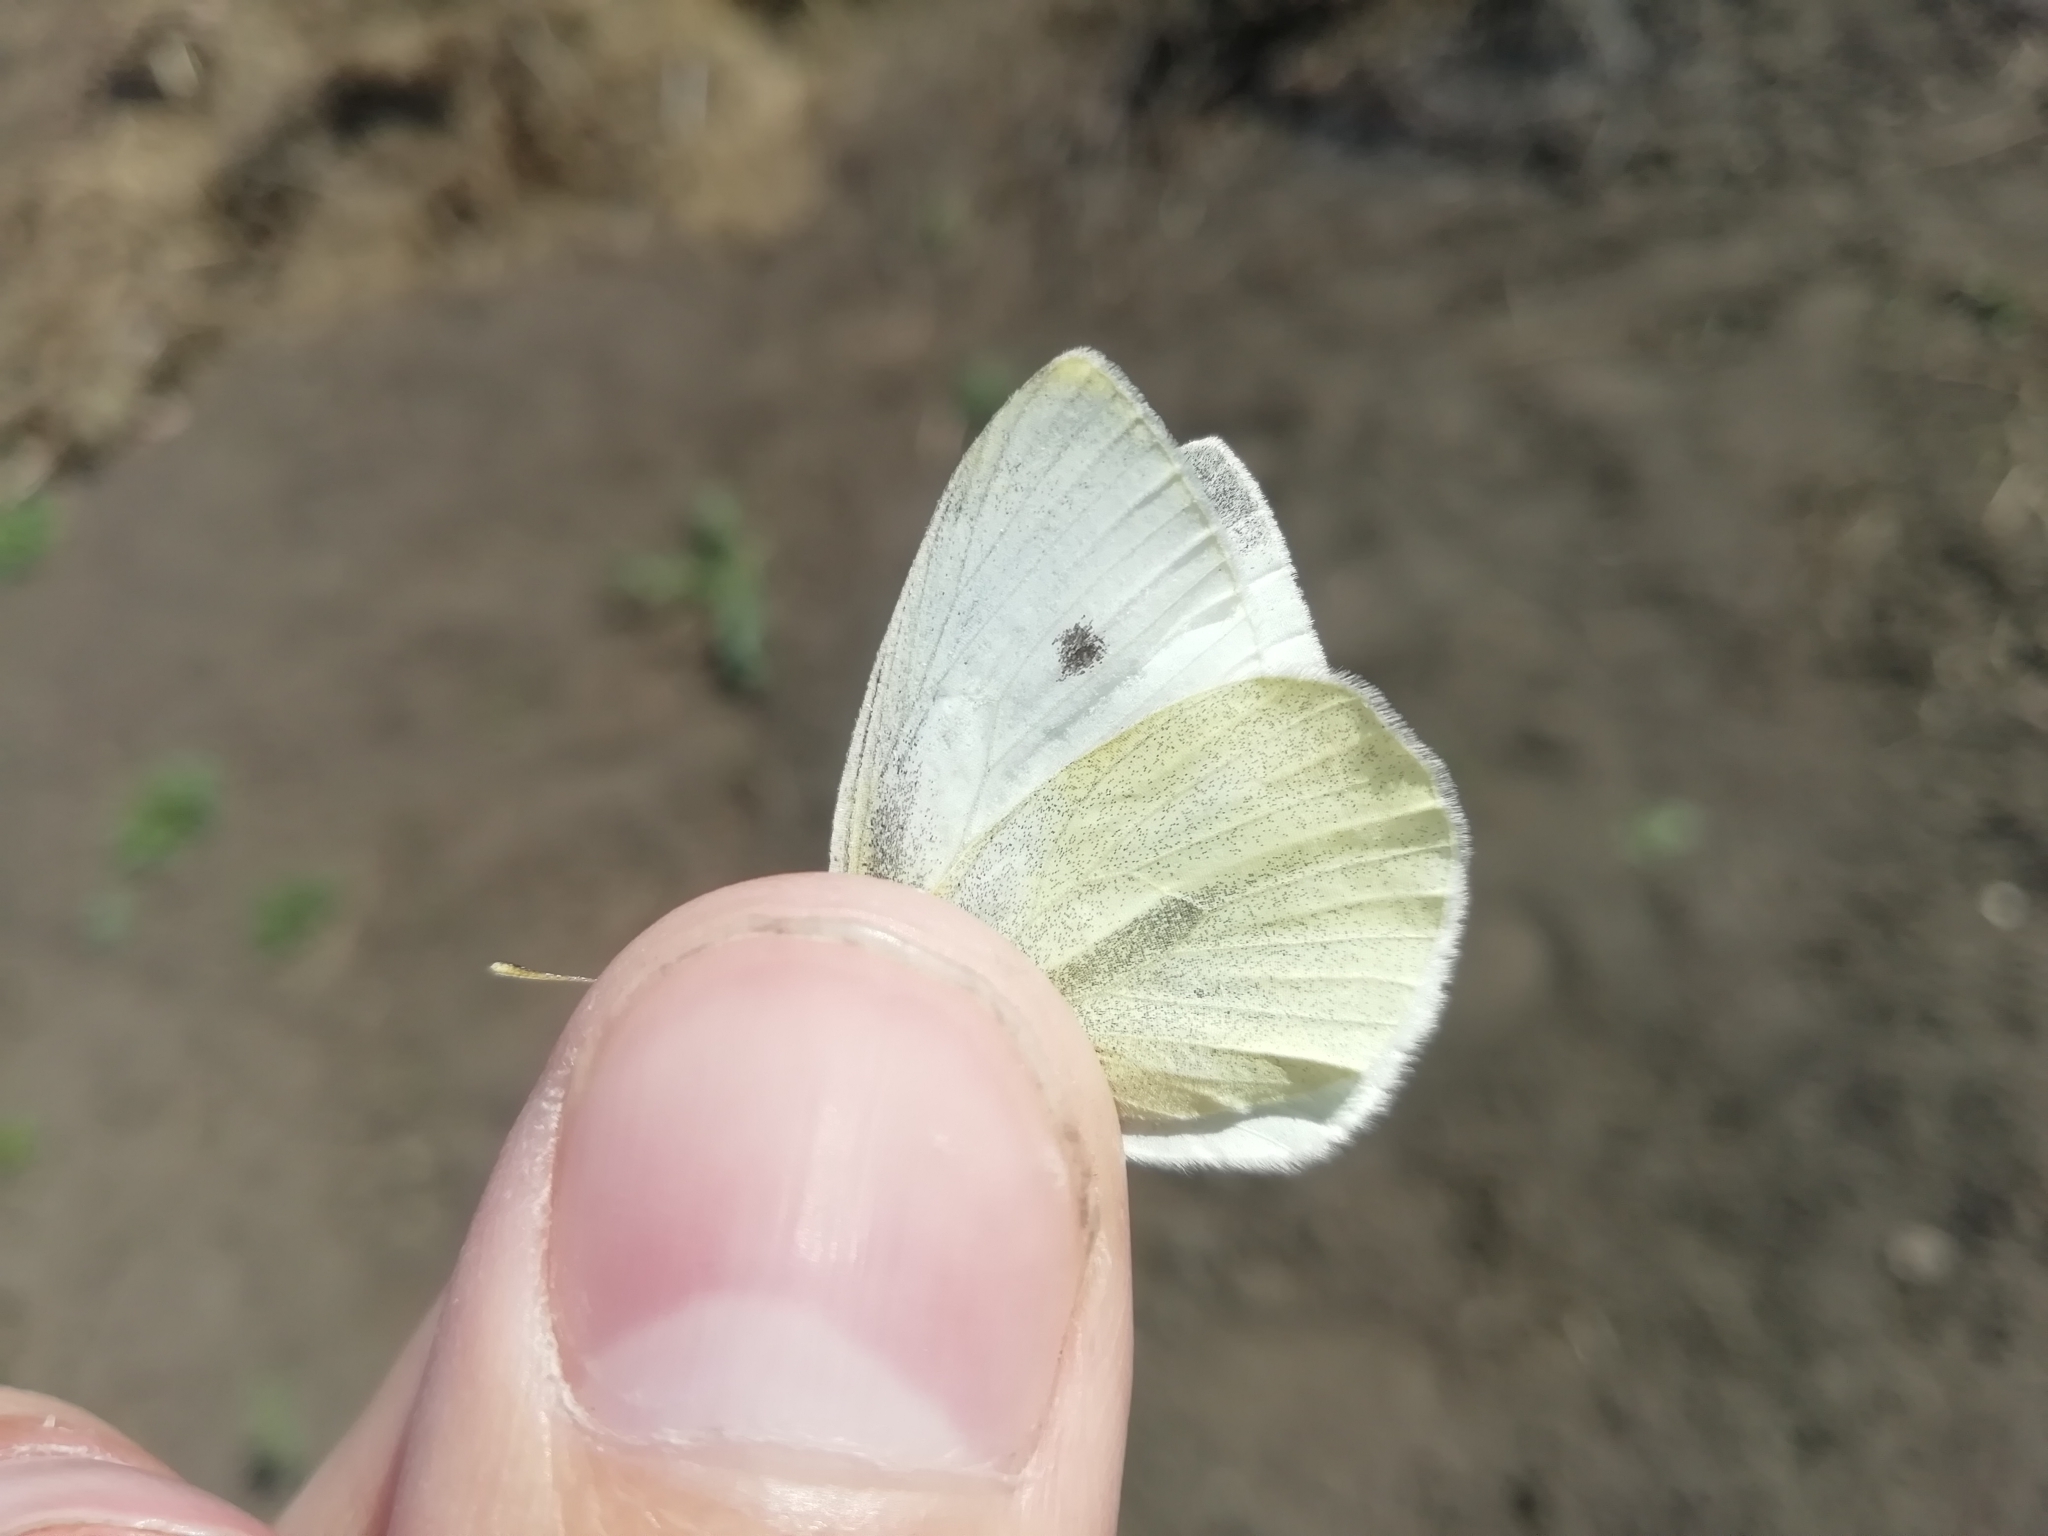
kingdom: Animalia
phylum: Arthropoda
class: Insecta
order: Lepidoptera
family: Pieridae
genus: Pieris
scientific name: Pieris rapae
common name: Small white
